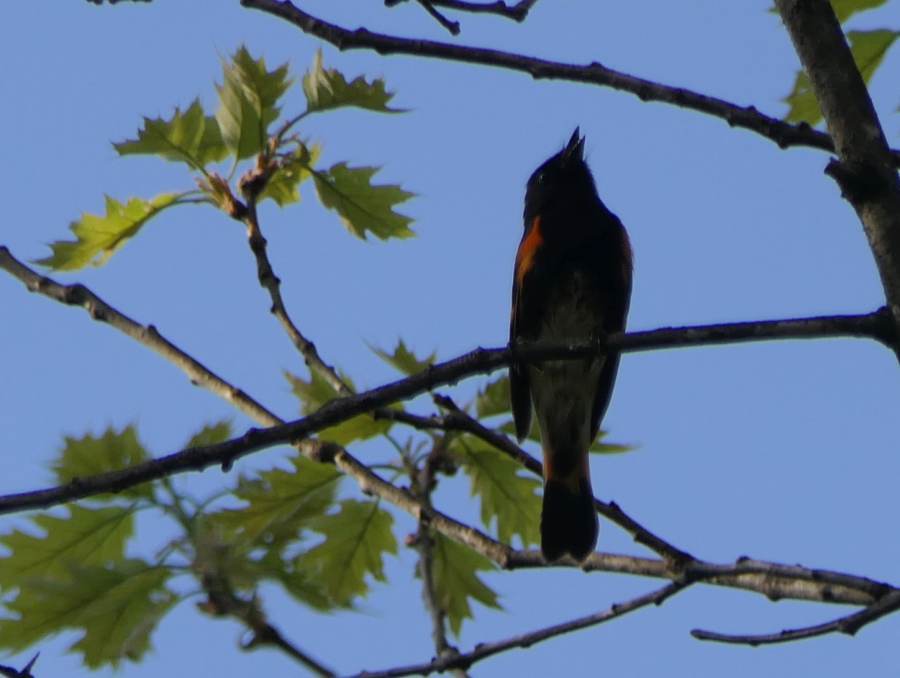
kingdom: Animalia
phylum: Chordata
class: Aves
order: Passeriformes
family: Parulidae
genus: Setophaga
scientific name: Setophaga ruticilla
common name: American redstart
